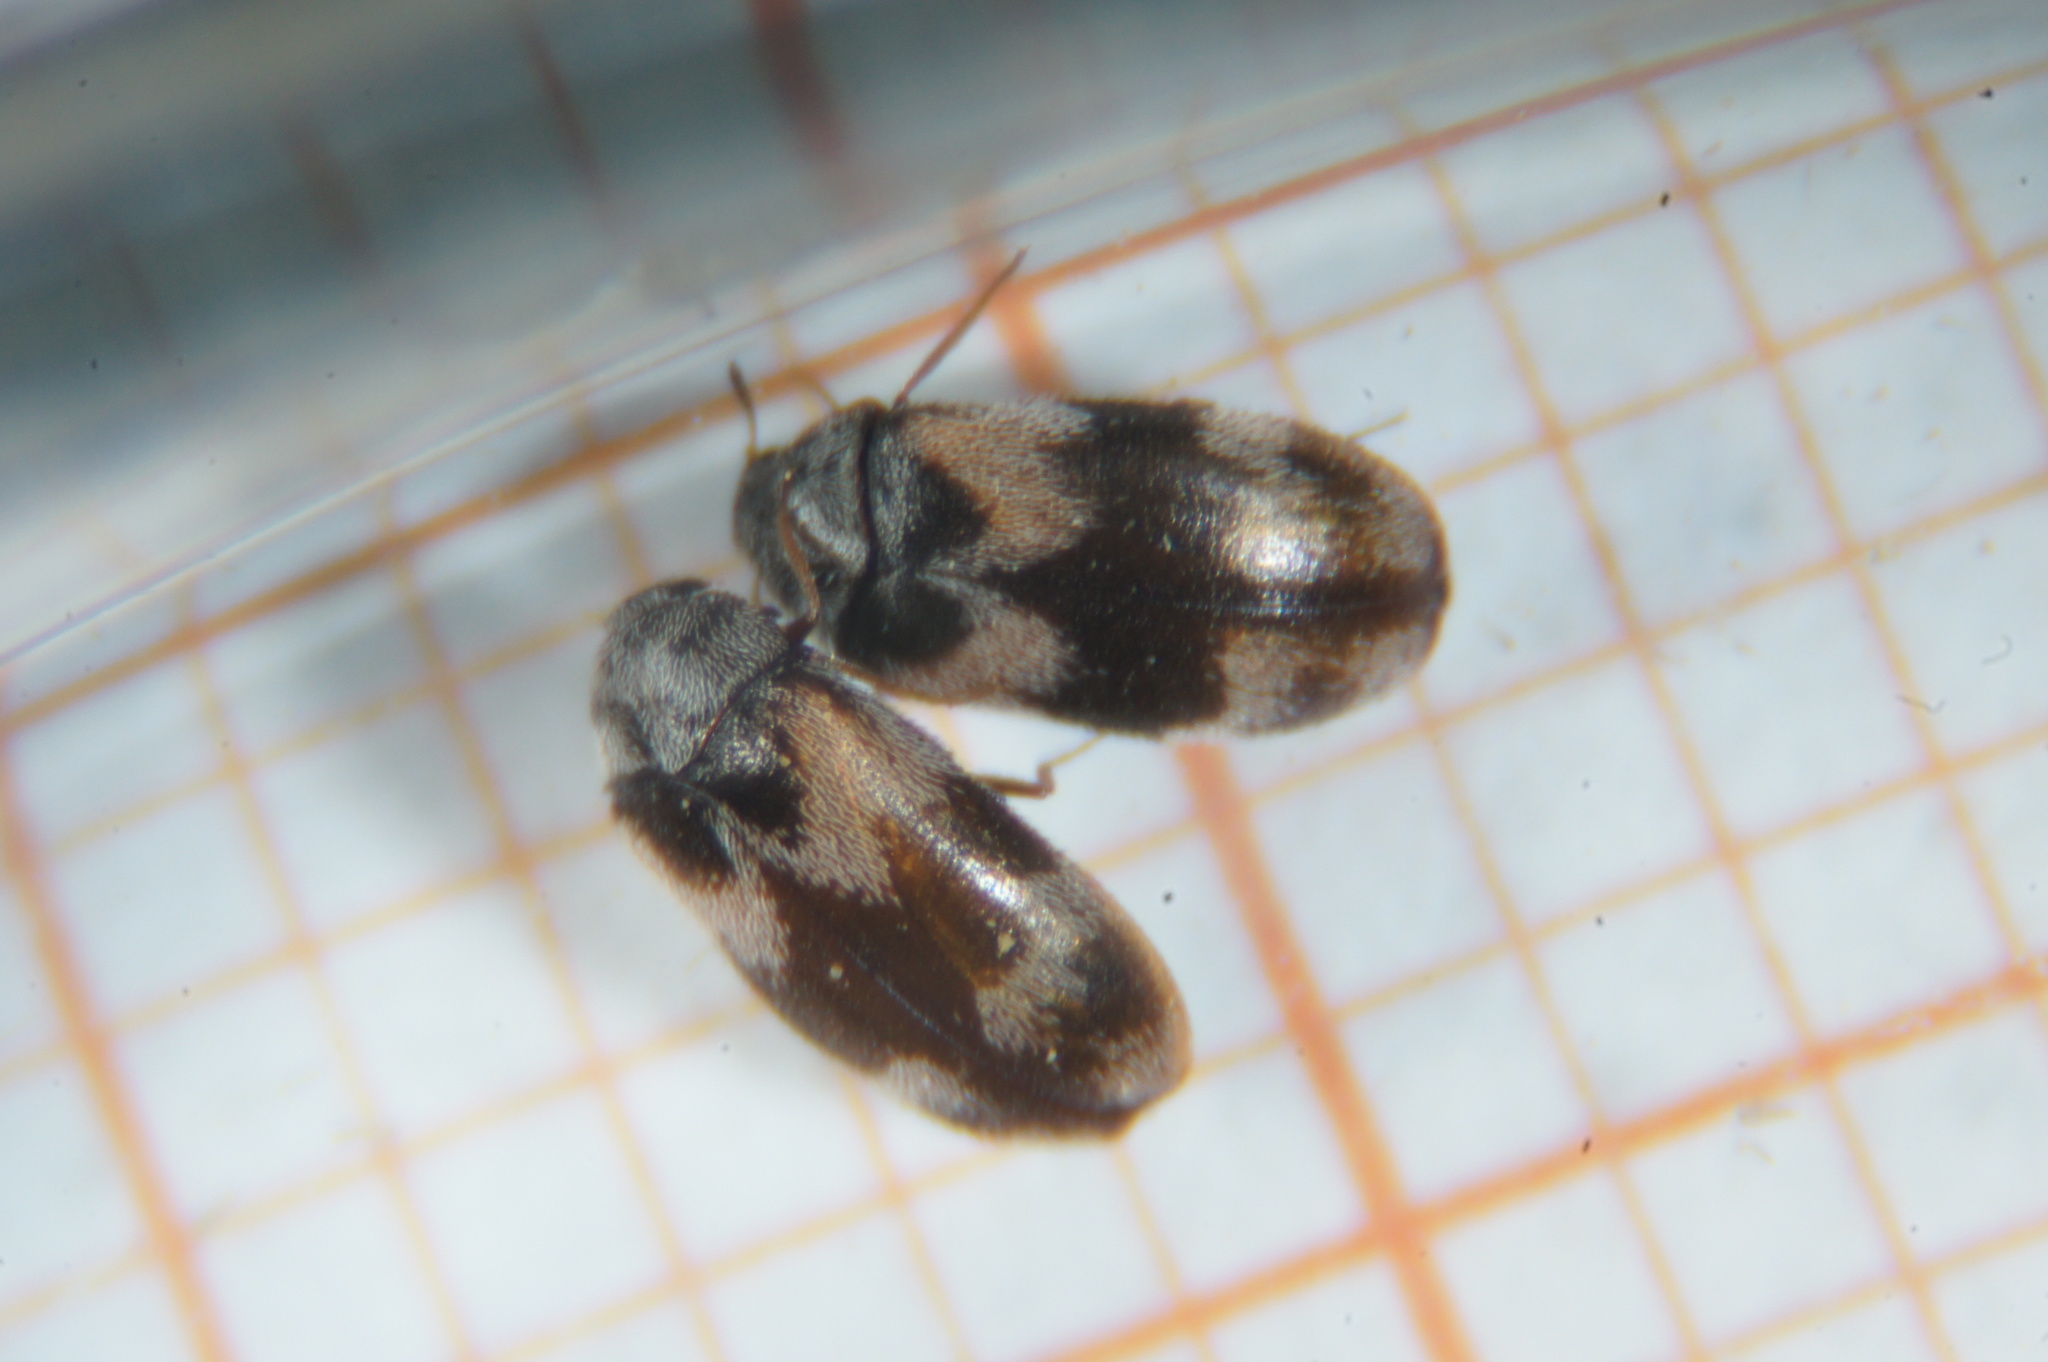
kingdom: Animalia
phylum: Arthropoda
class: Insecta
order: Coleoptera
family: Dermestidae
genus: Trogoderma
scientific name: Trogoderma angustum
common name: Skin beetle
